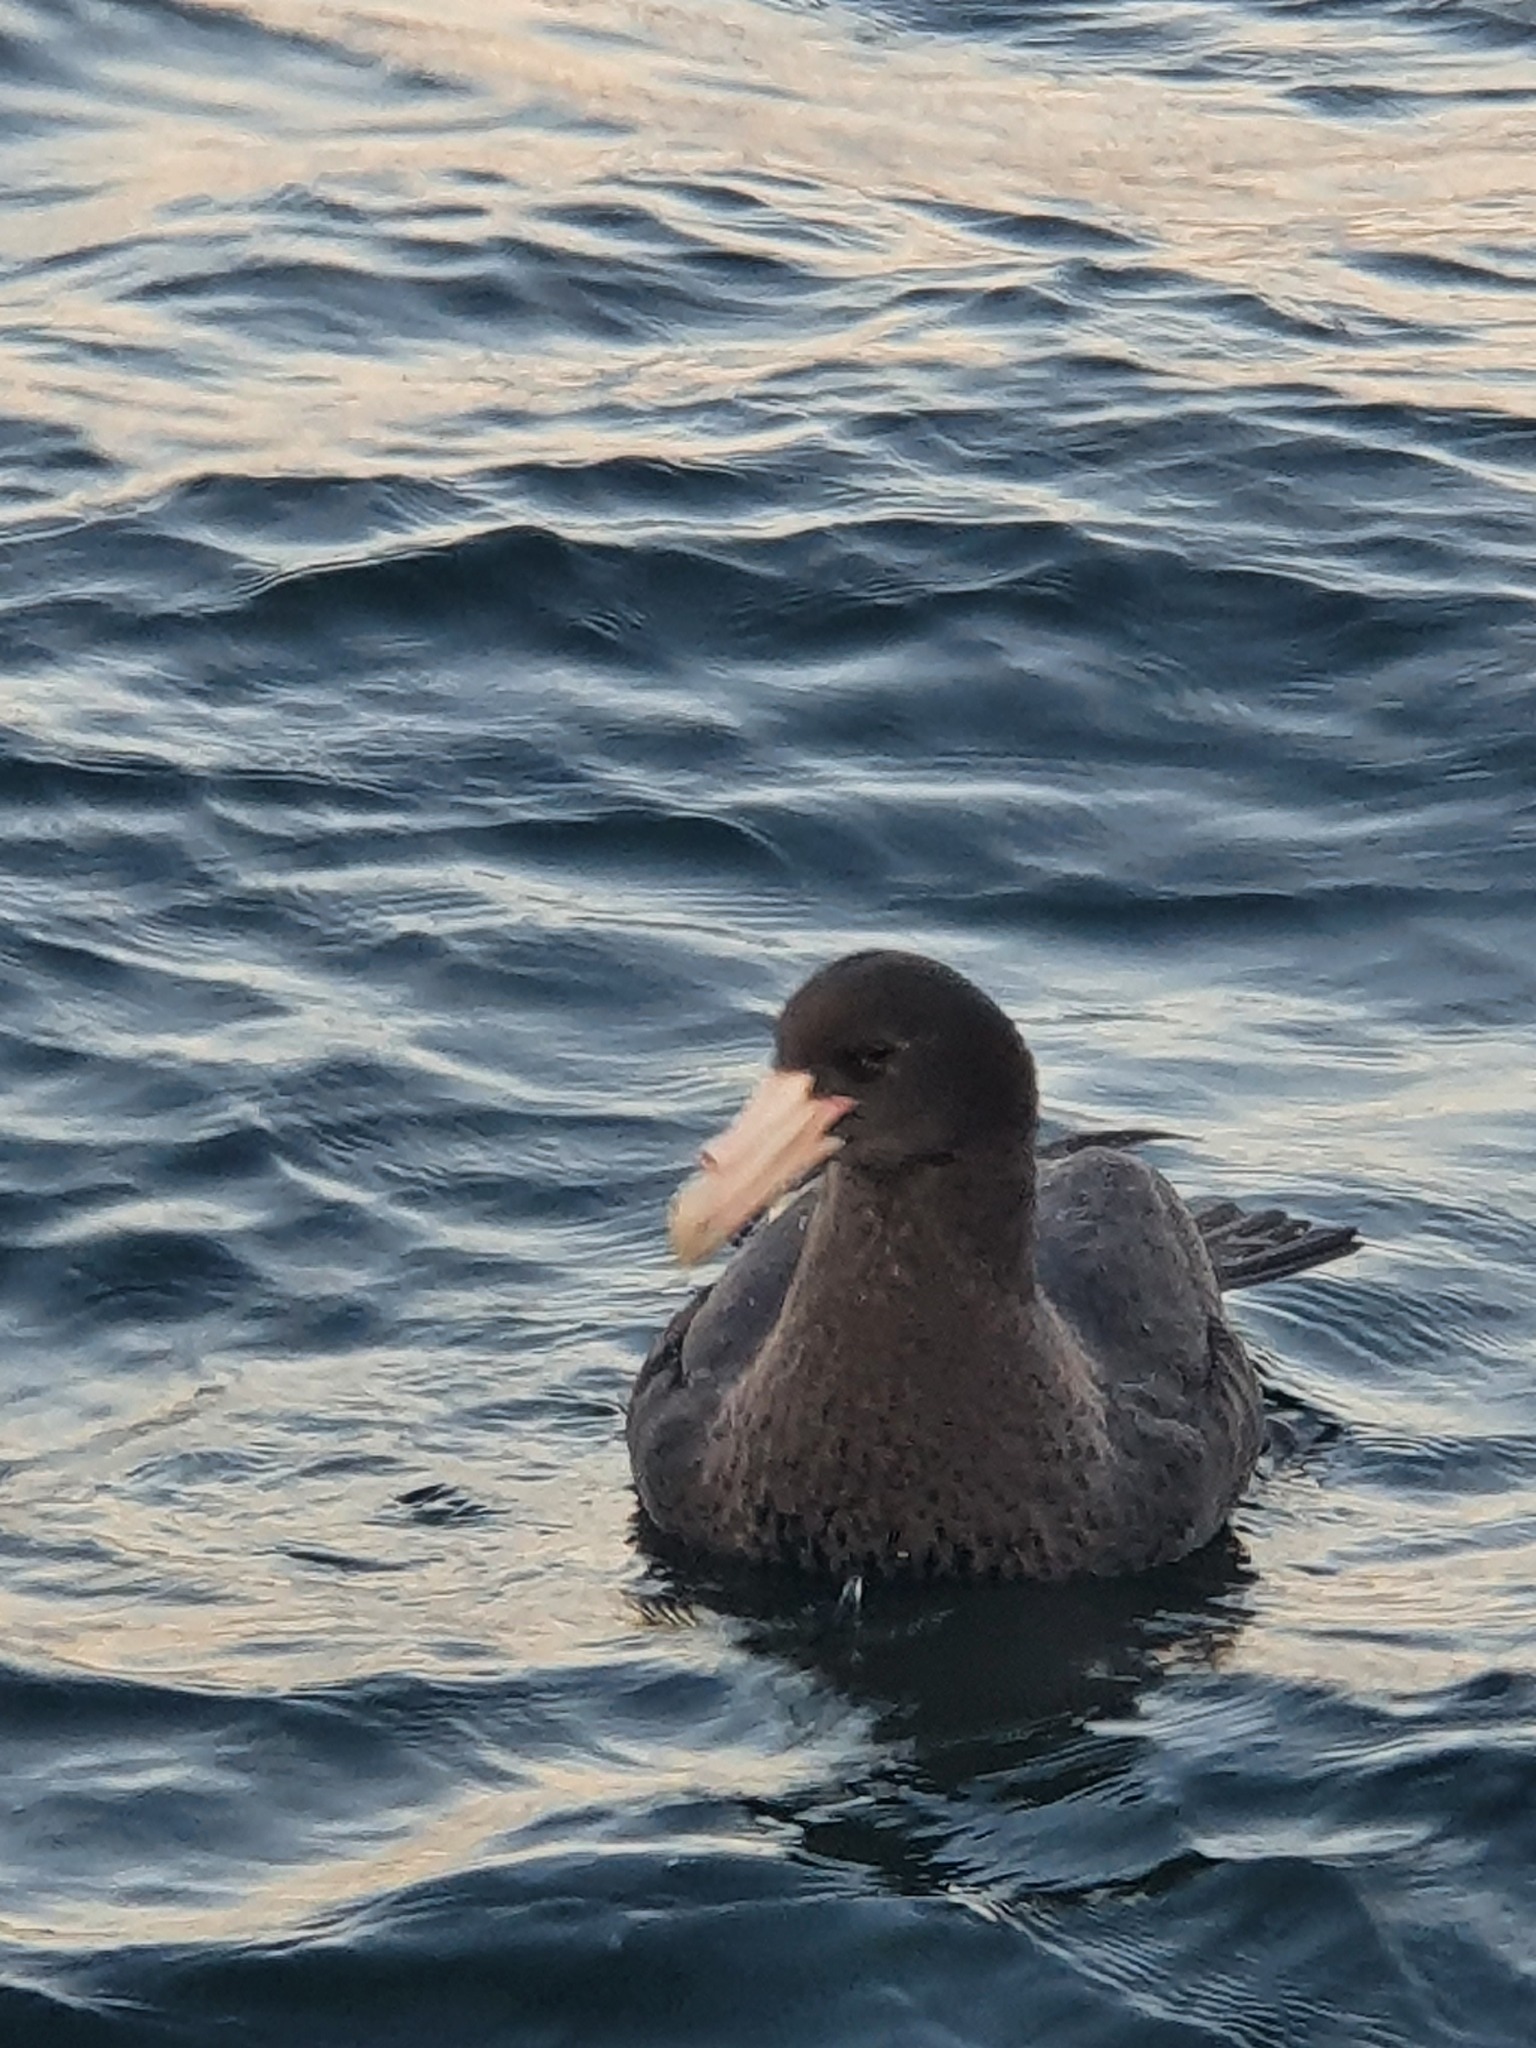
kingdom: Animalia
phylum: Chordata
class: Aves
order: Procellariiformes
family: Procellariidae
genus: Macronectes
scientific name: Macronectes giganteus
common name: Southern giant petrel
